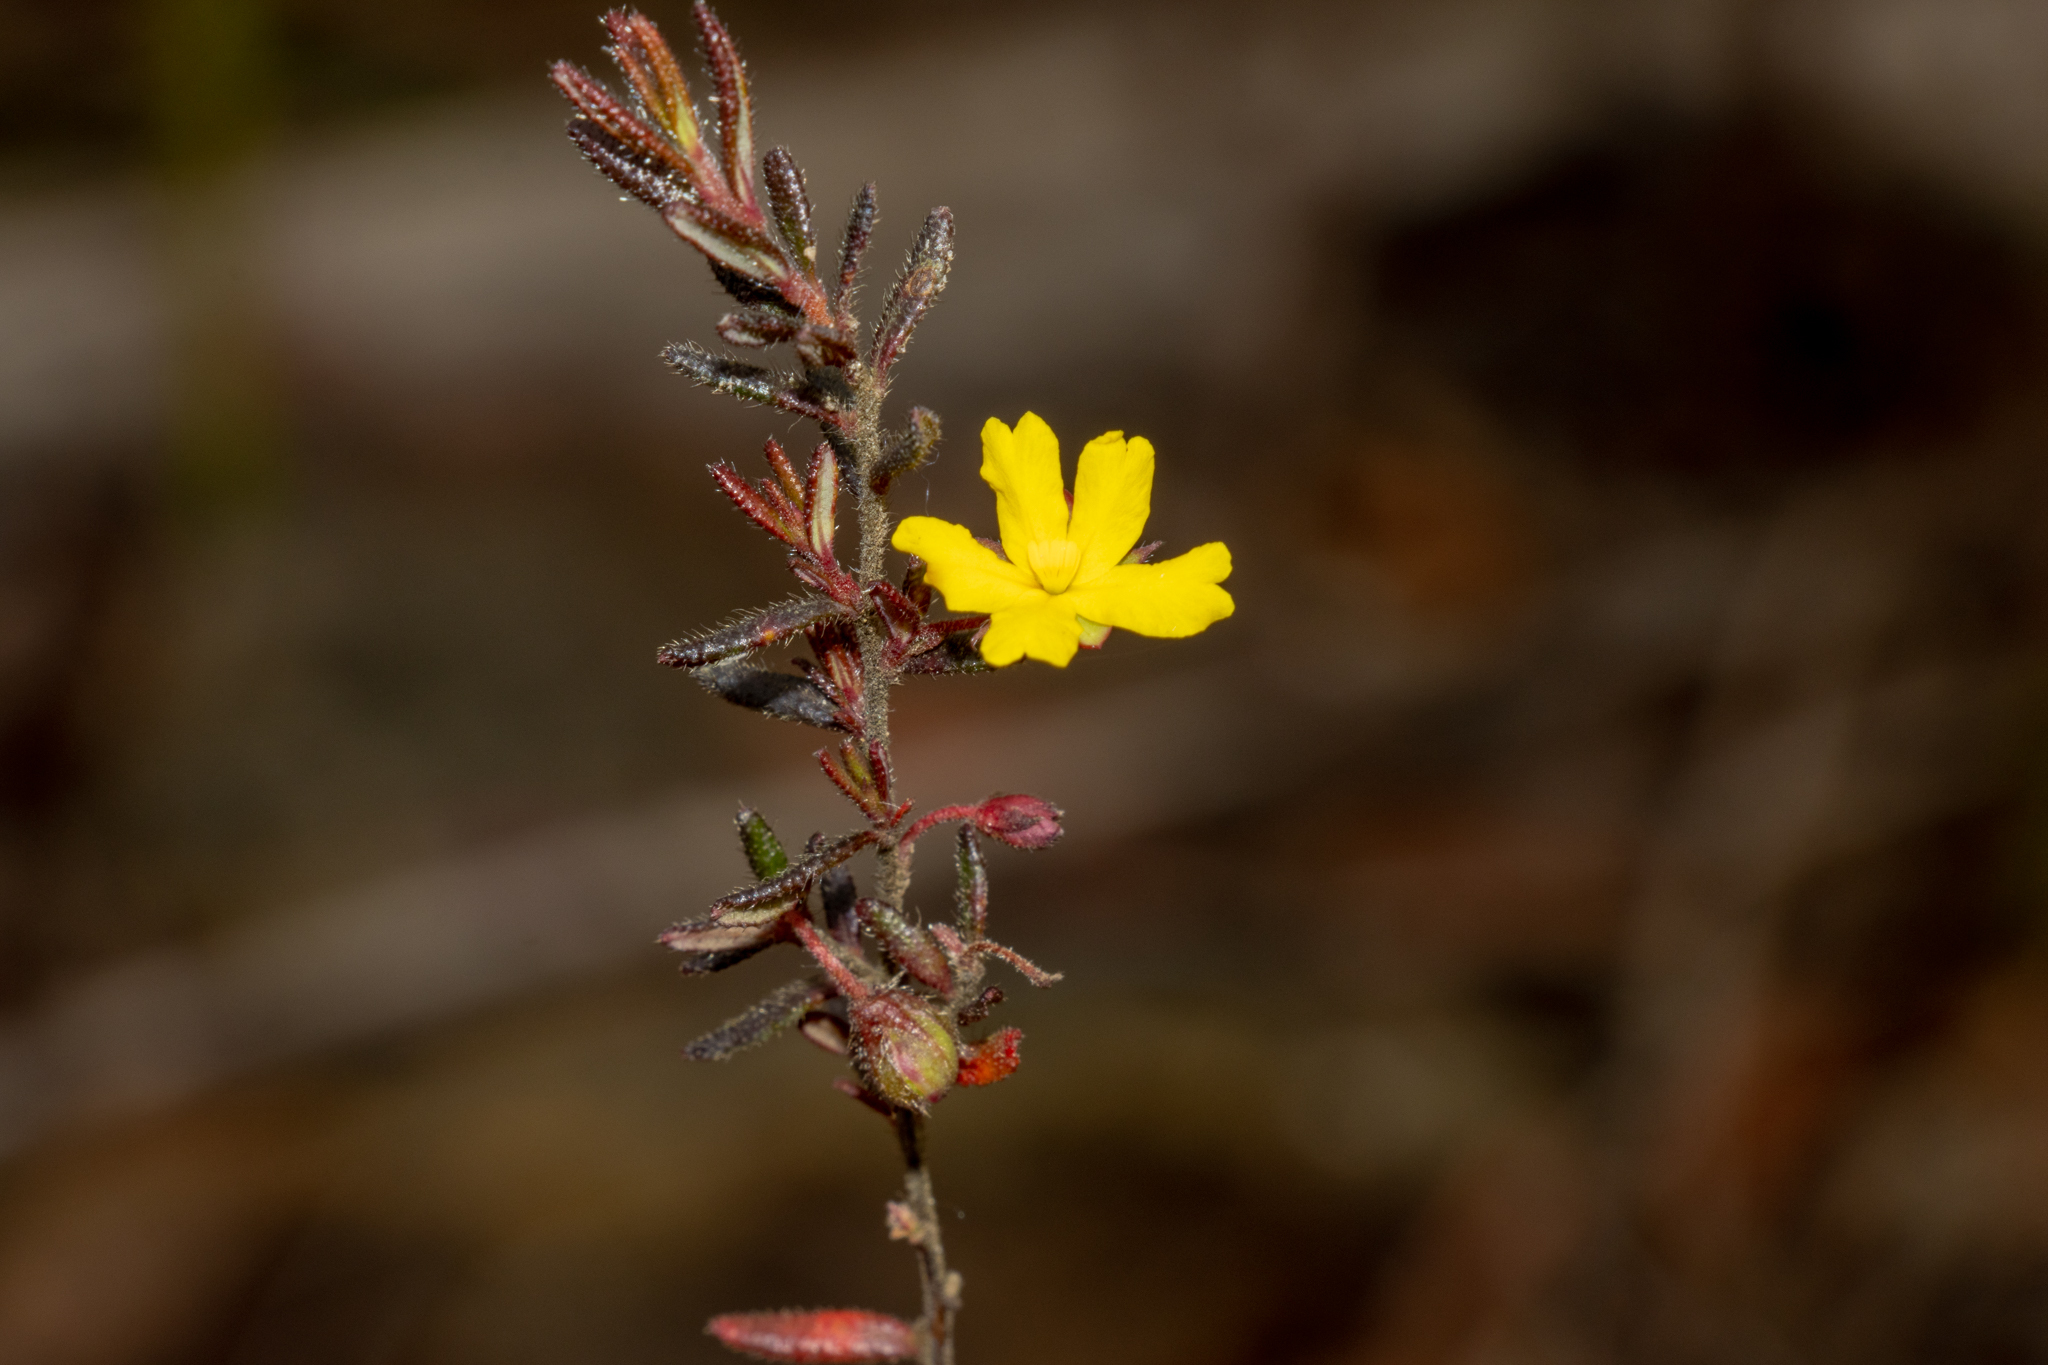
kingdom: Plantae
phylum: Tracheophyta
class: Magnoliopsida
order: Dilleniales
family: Dilleniaceae
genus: Hibbertia
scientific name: Hibbertia empetrifolia
